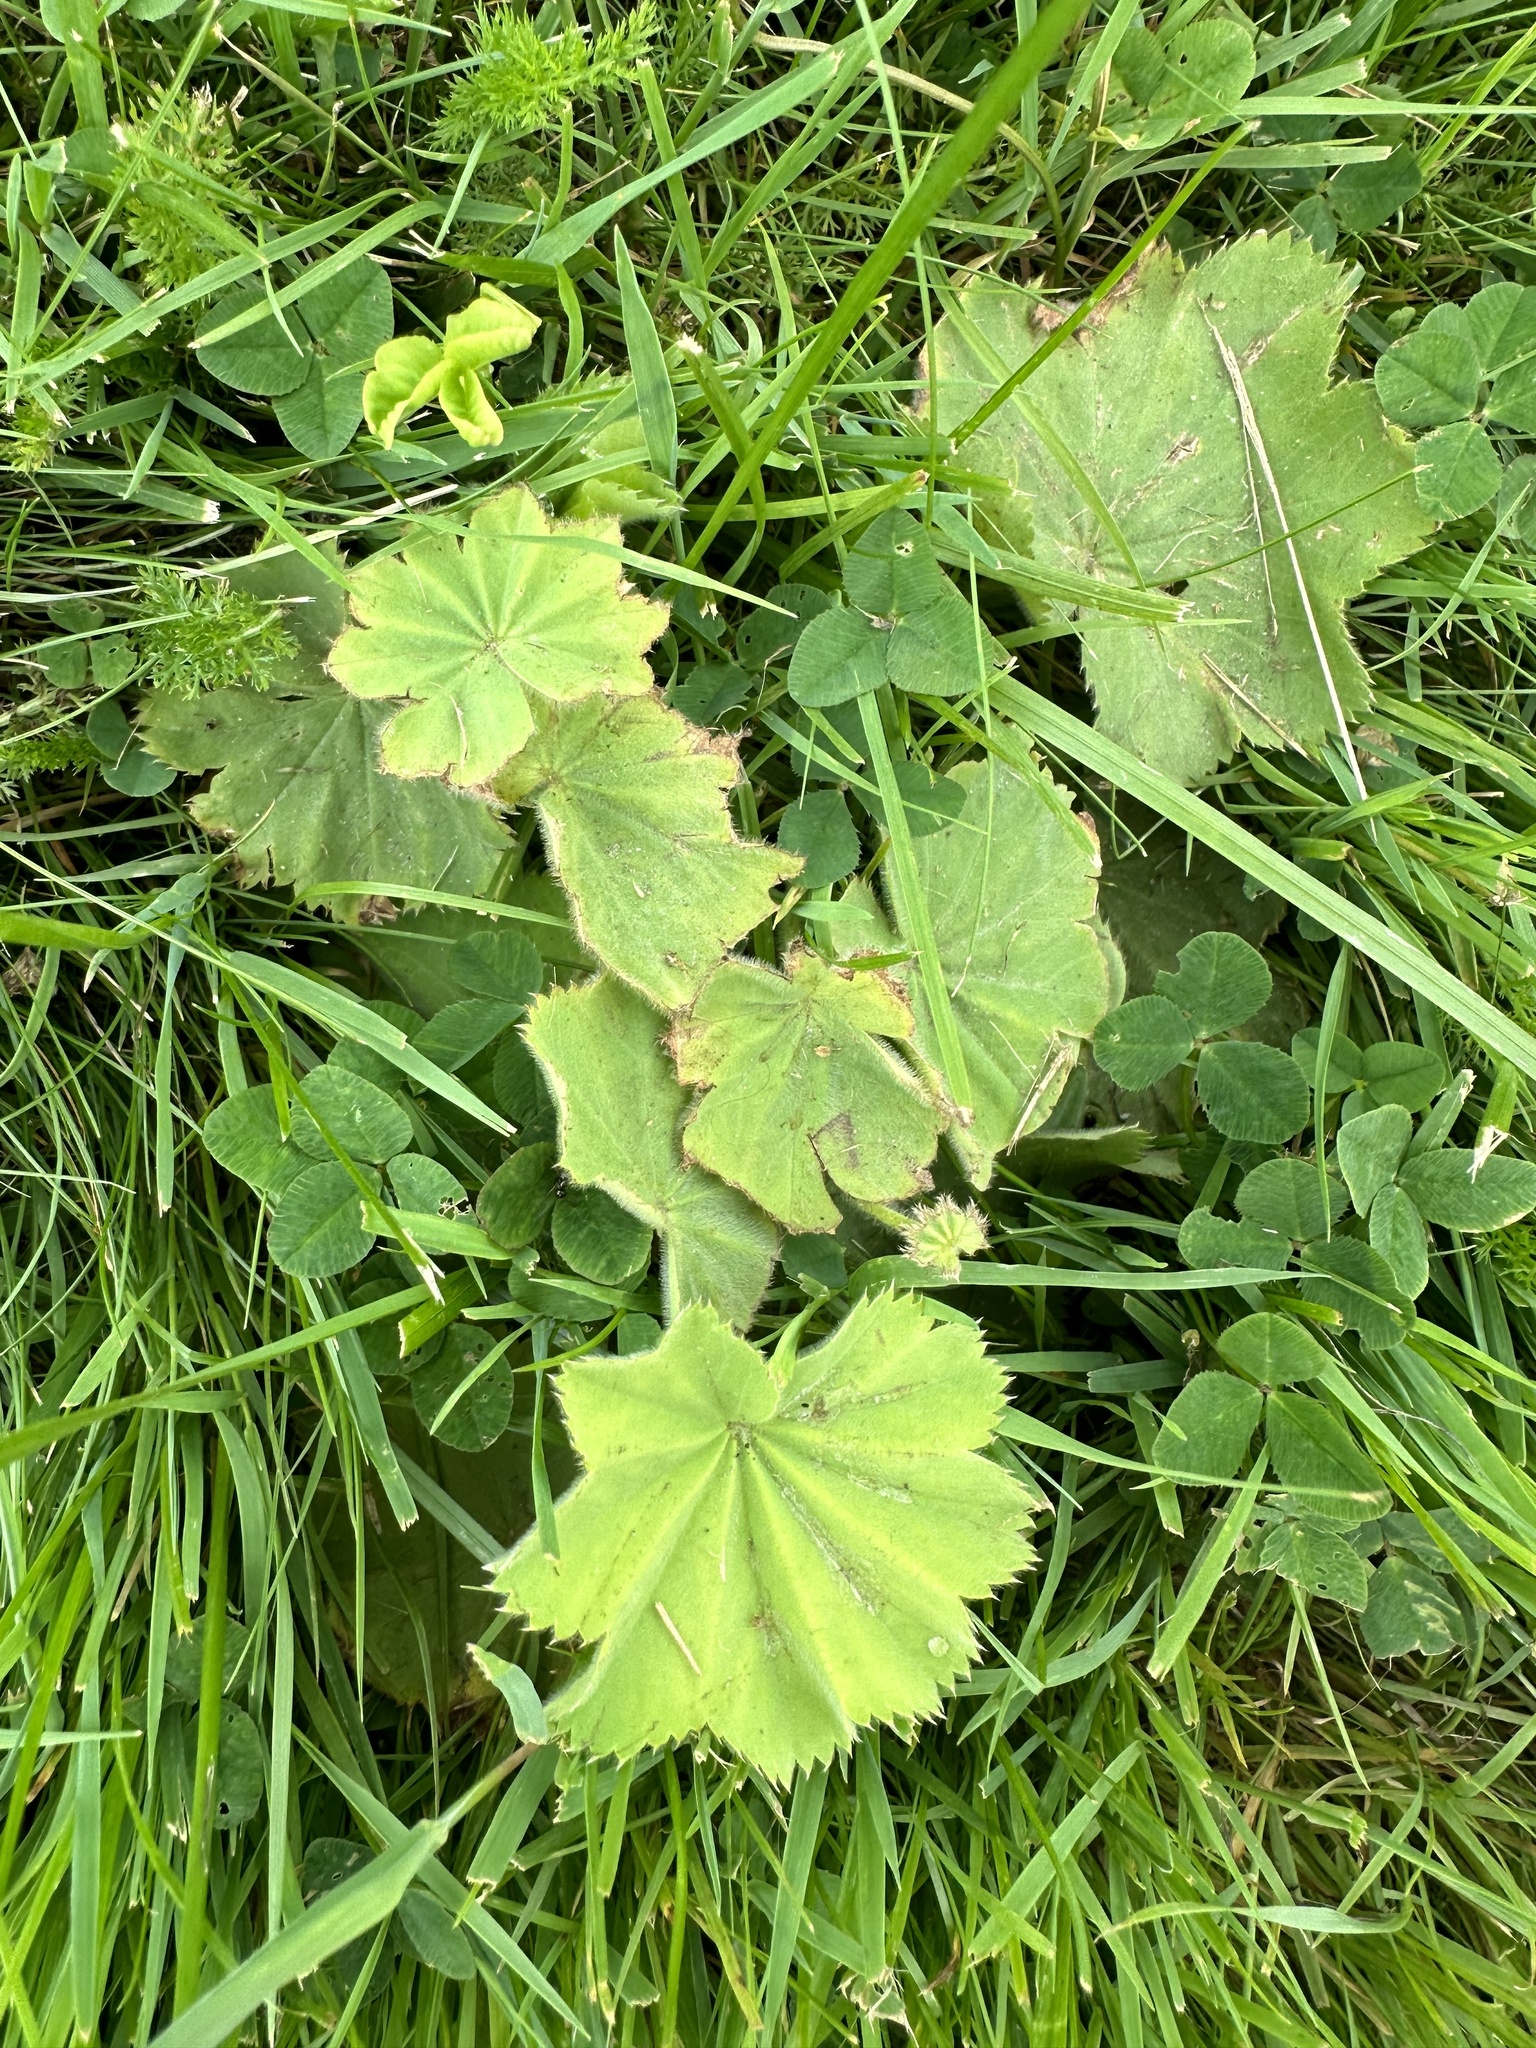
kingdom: Plantae
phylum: Tracheophyta
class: Magnoliopsida
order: Rosales
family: Rosaceae
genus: Alchemilla
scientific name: Alchemilla mollis
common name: Lady's-mantle
